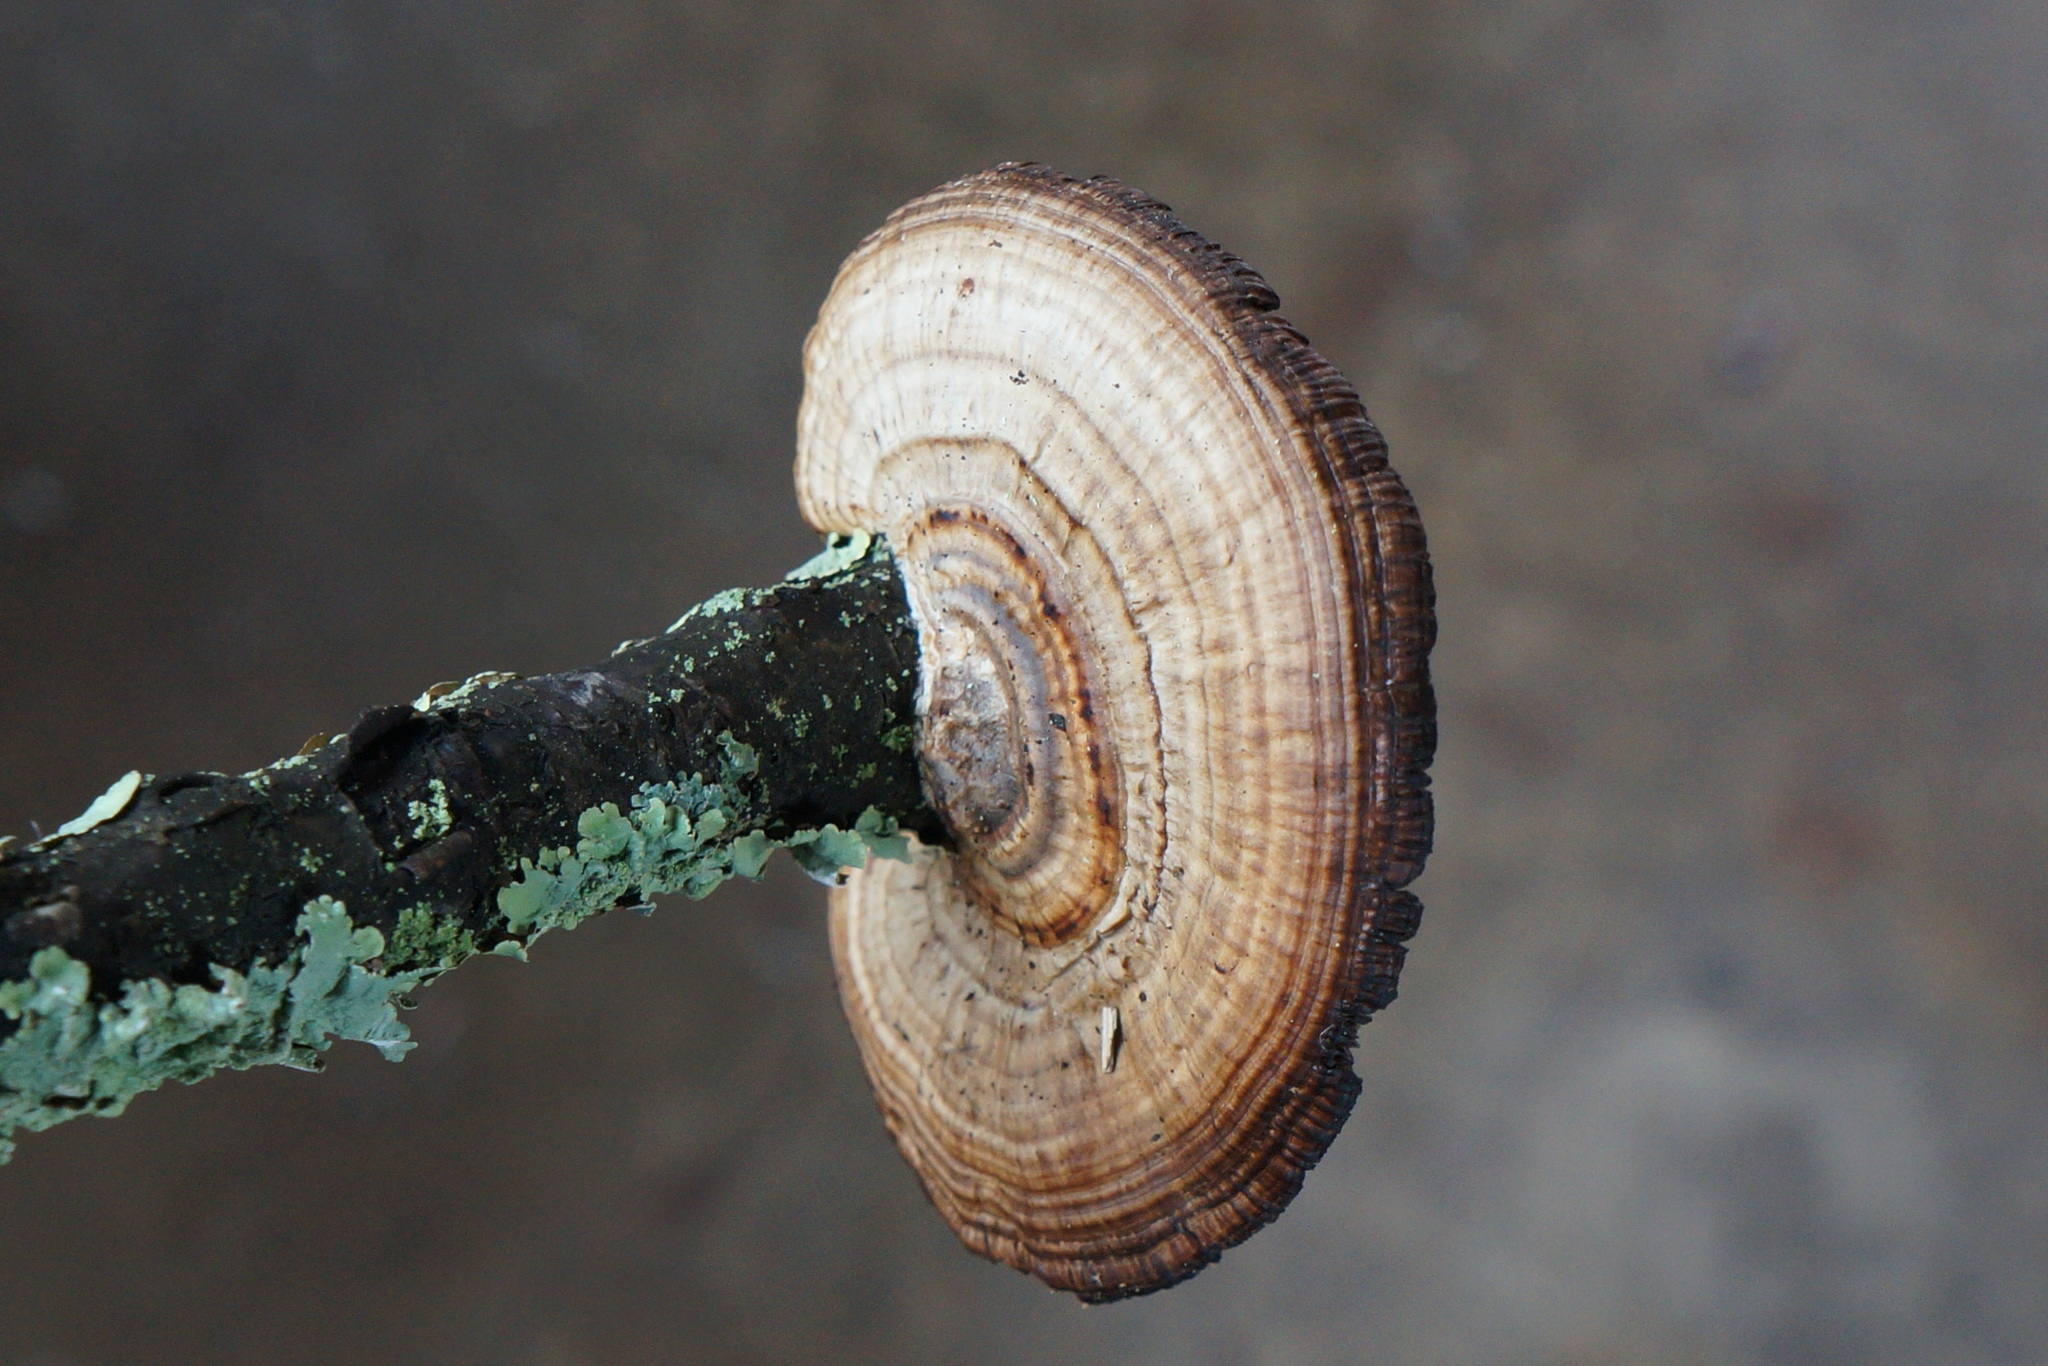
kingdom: Fungi
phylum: Basidiomycota
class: Agaricomycetes
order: Polyporales
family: Polyporaceae
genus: Daedaleopsis
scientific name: Daedaleopsis confragosa
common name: Blushing bracket
